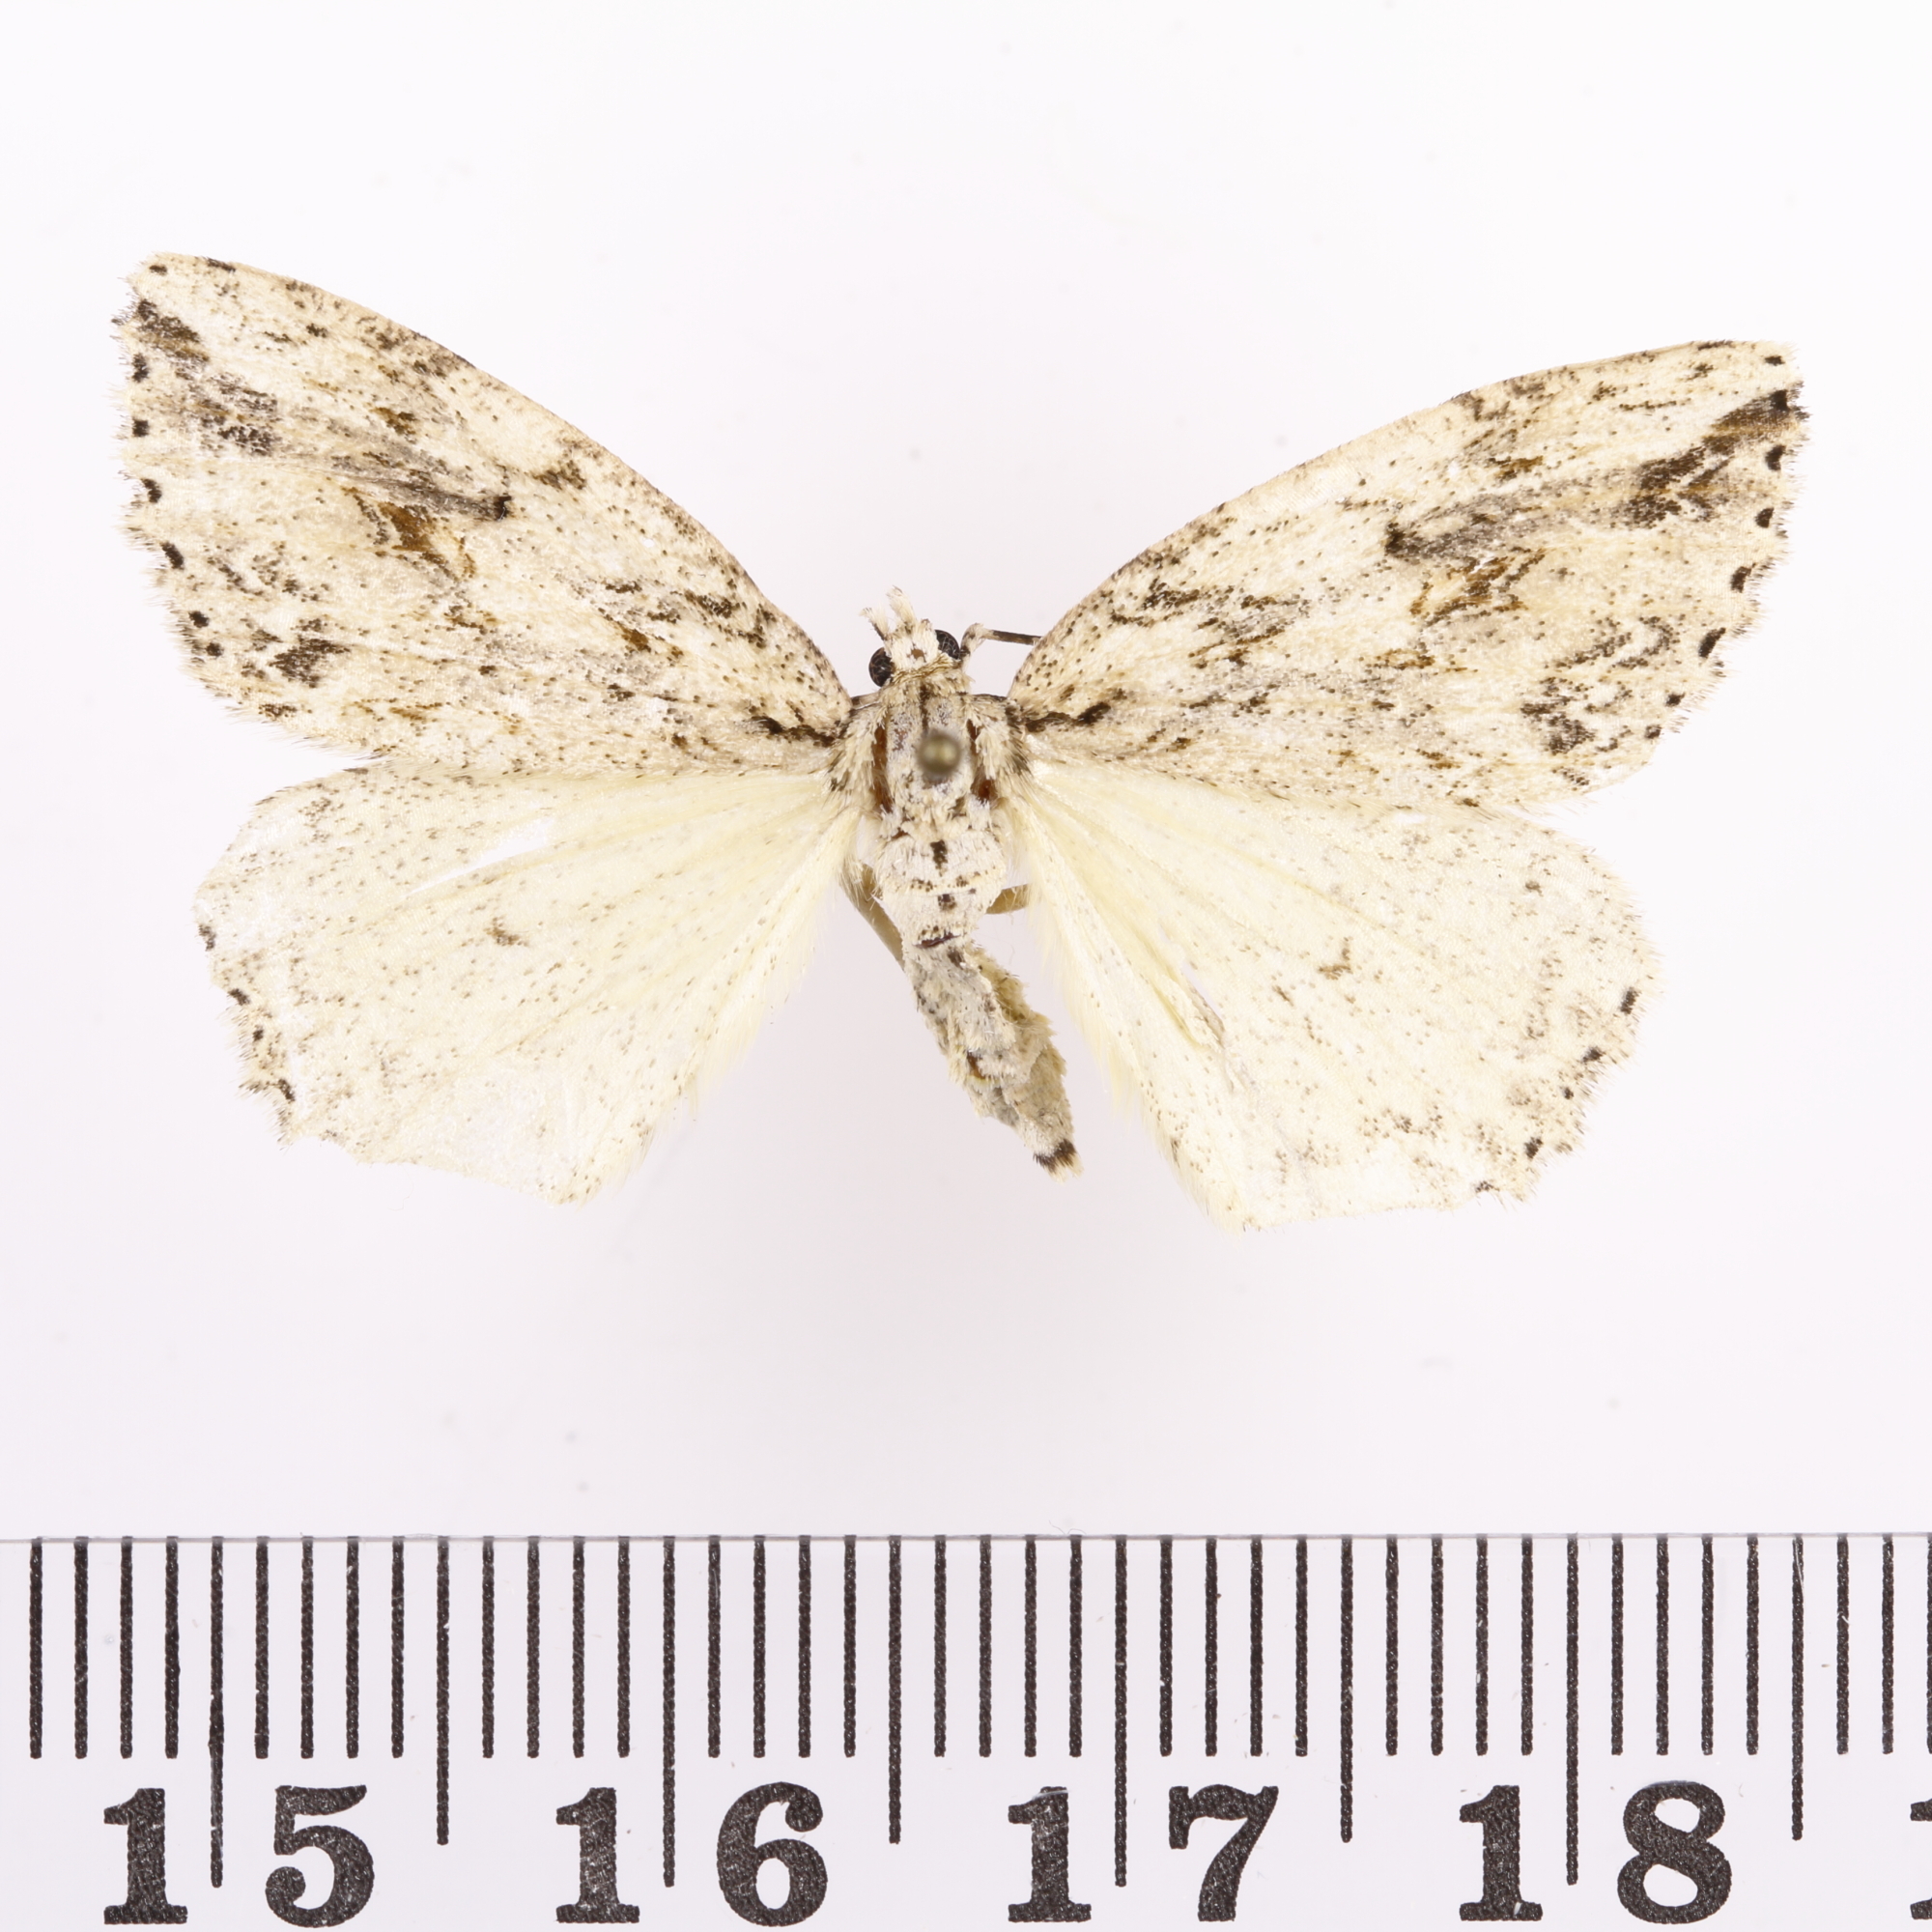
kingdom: Animalia
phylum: Arthropoda
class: Insecta
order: Lepidoptera
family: Geometridae
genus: Pseudocoremia
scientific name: Pseudocoremia rudisata
